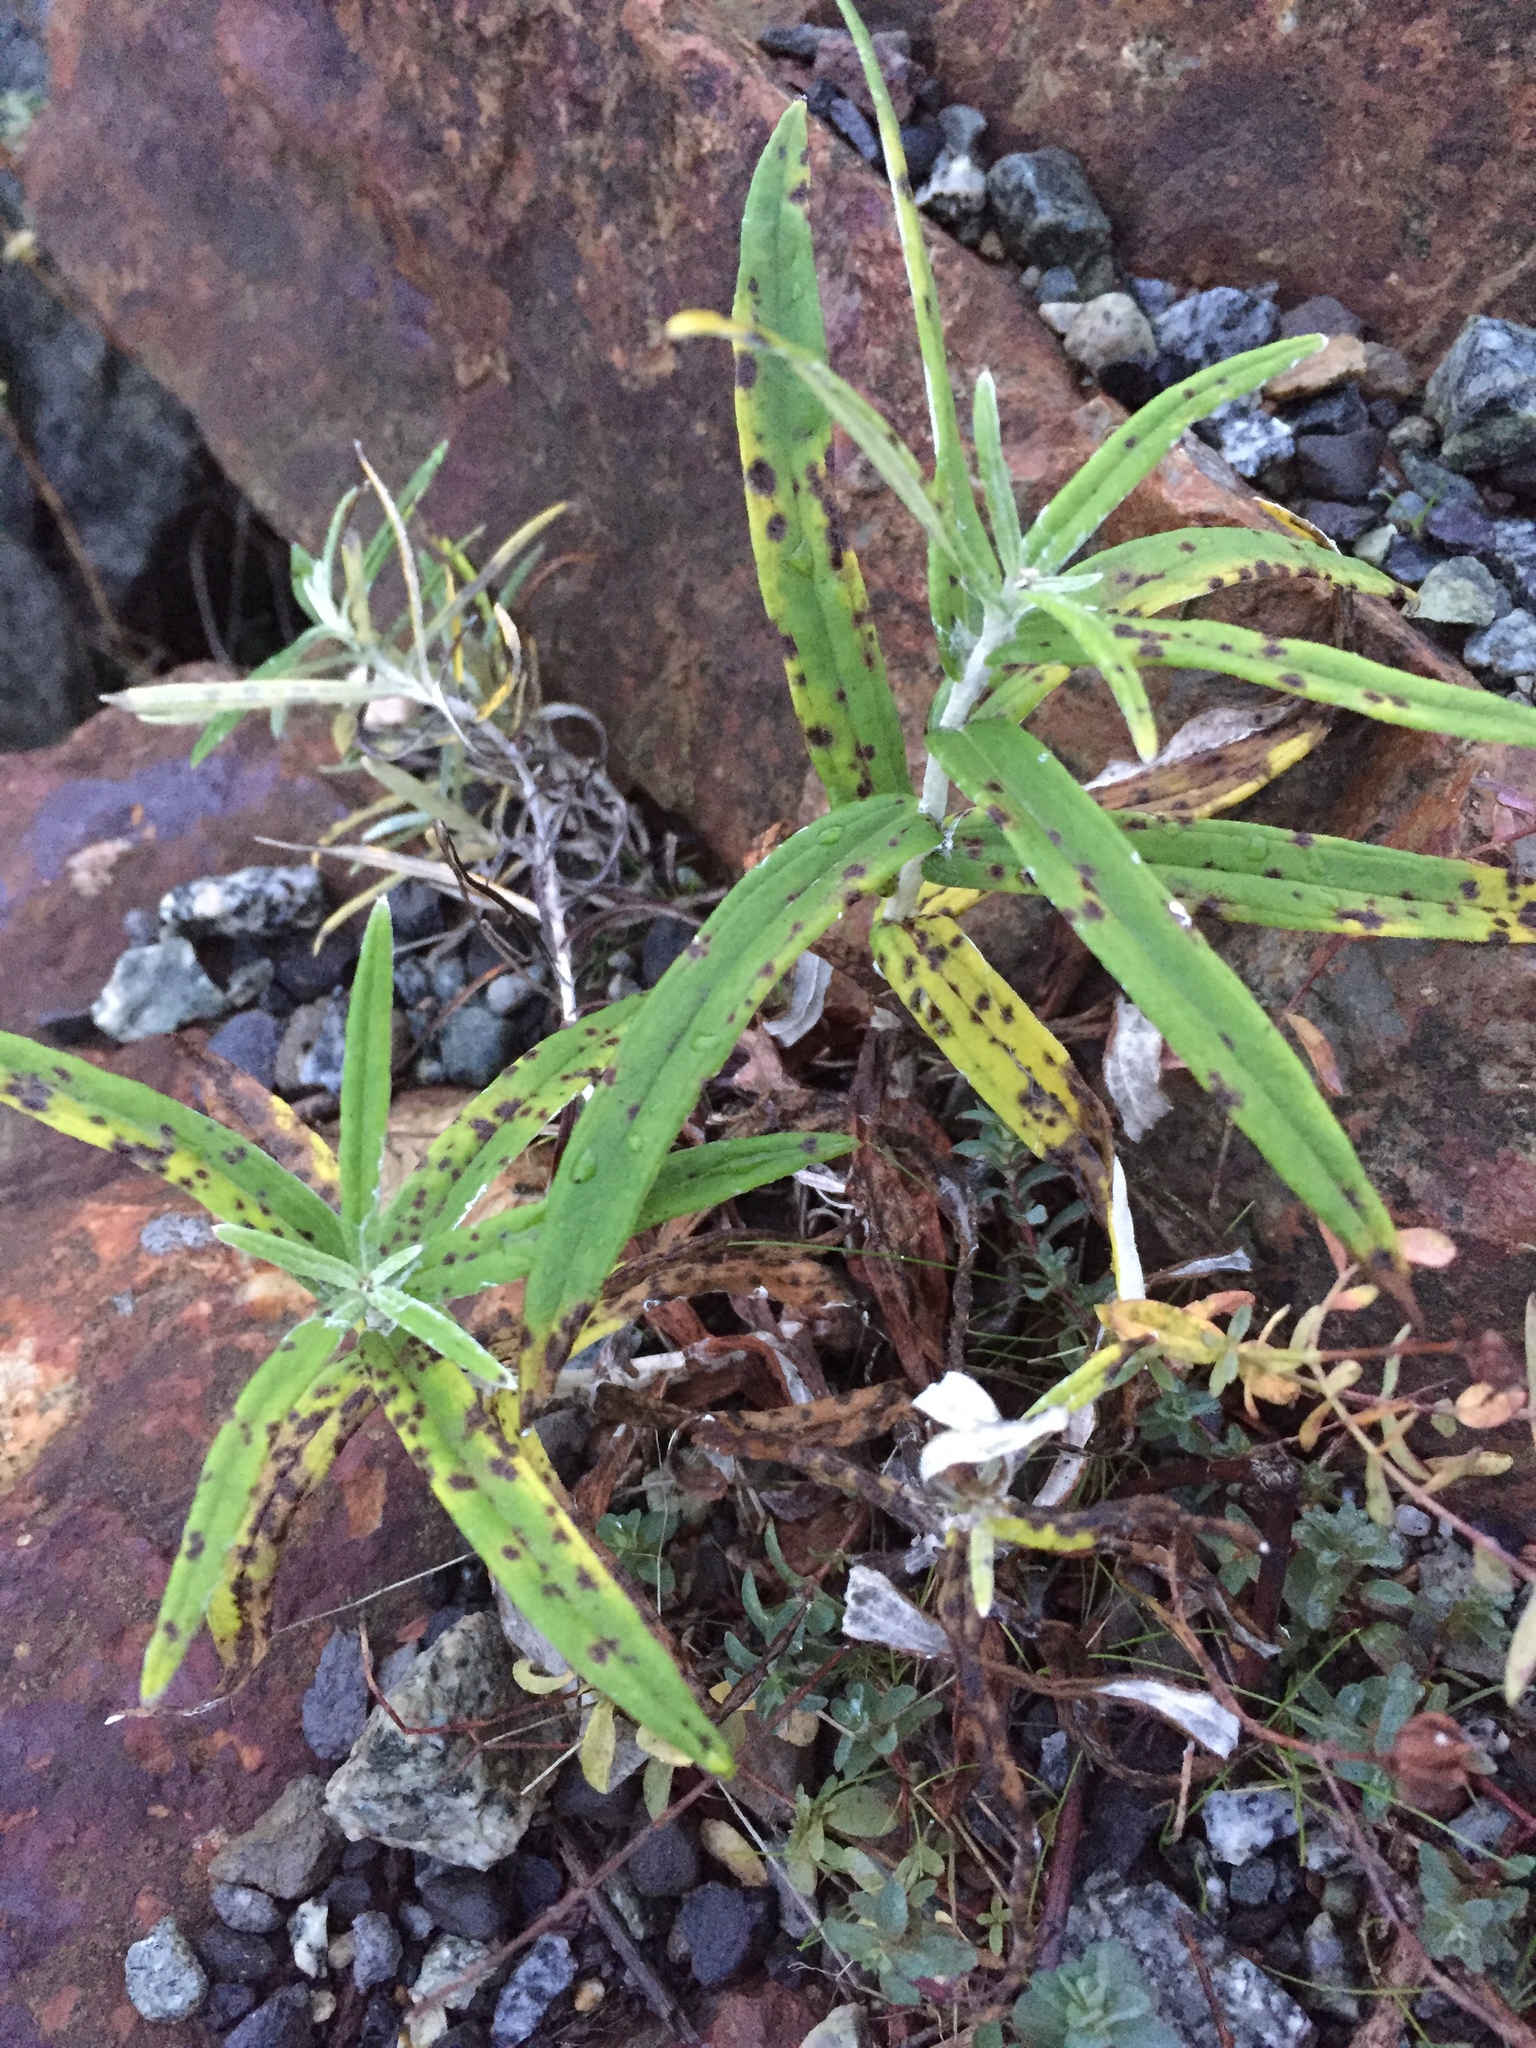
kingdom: Plantae
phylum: Tracheophyta
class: Magnoliopsida
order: Asterales
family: Asteraceae
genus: Anaphalis
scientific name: Anaphalis margaritacea
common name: Pearly everlasting
